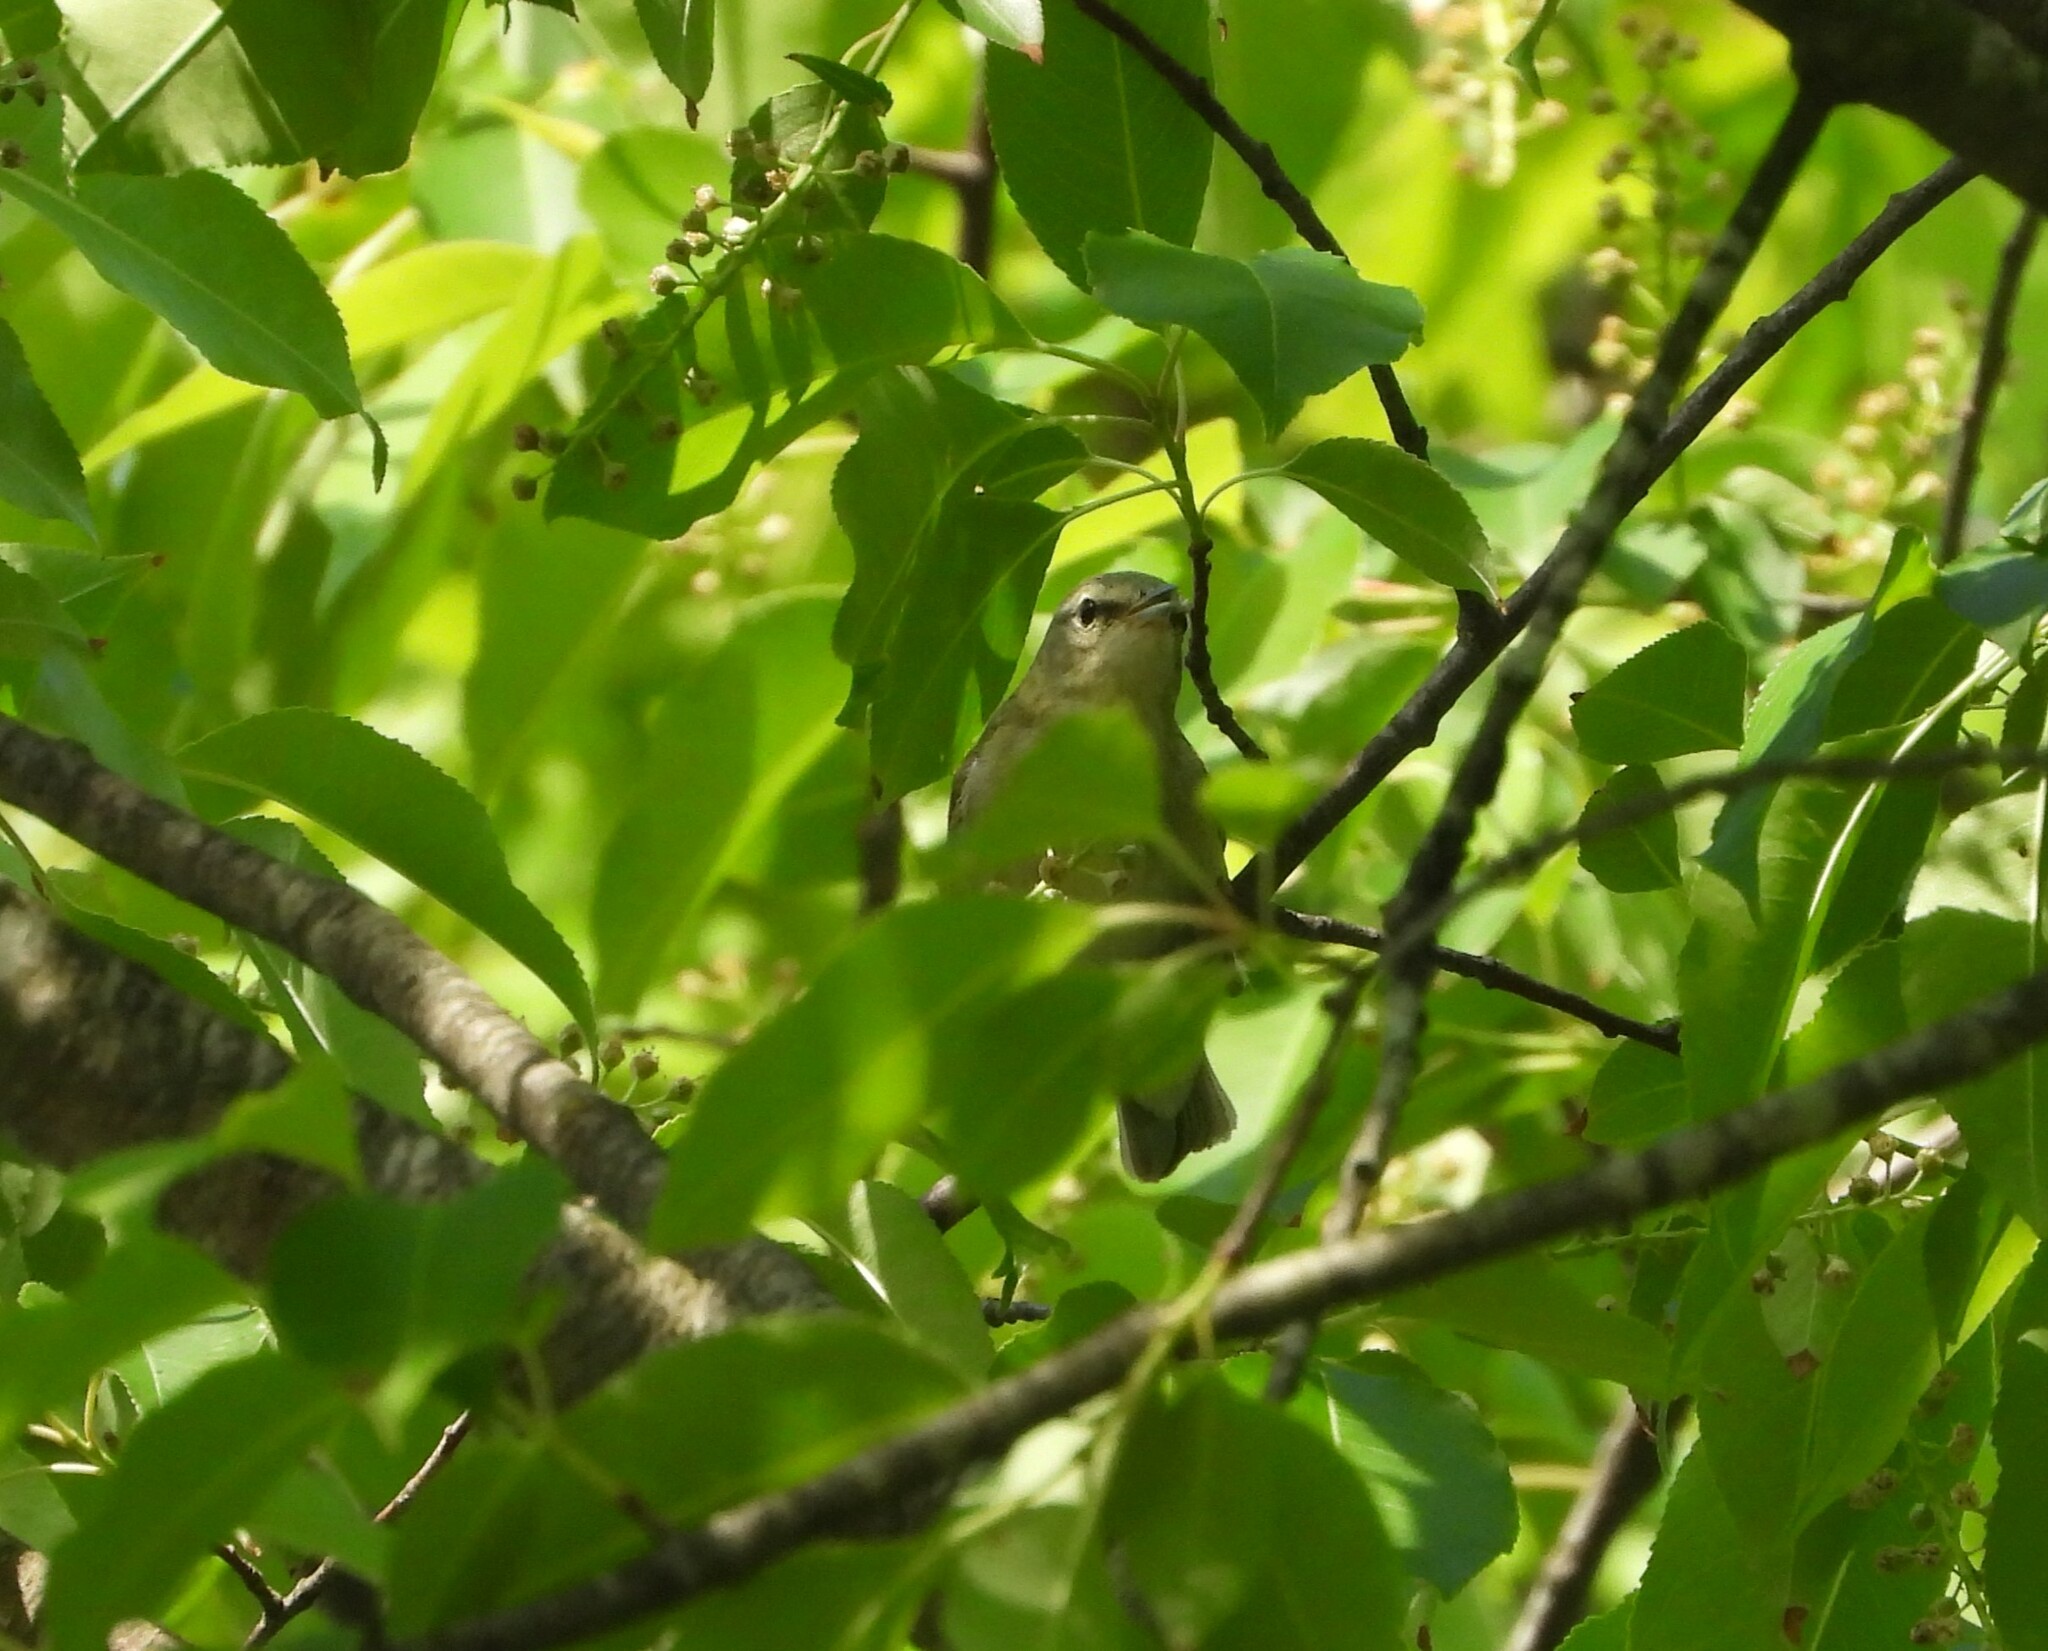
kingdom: Animalia
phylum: Chordata
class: Aves
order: Passeriformes
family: Parulidae
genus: Leiothlypis
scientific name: Leiothlypis peregrina
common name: Tennessee warbler
